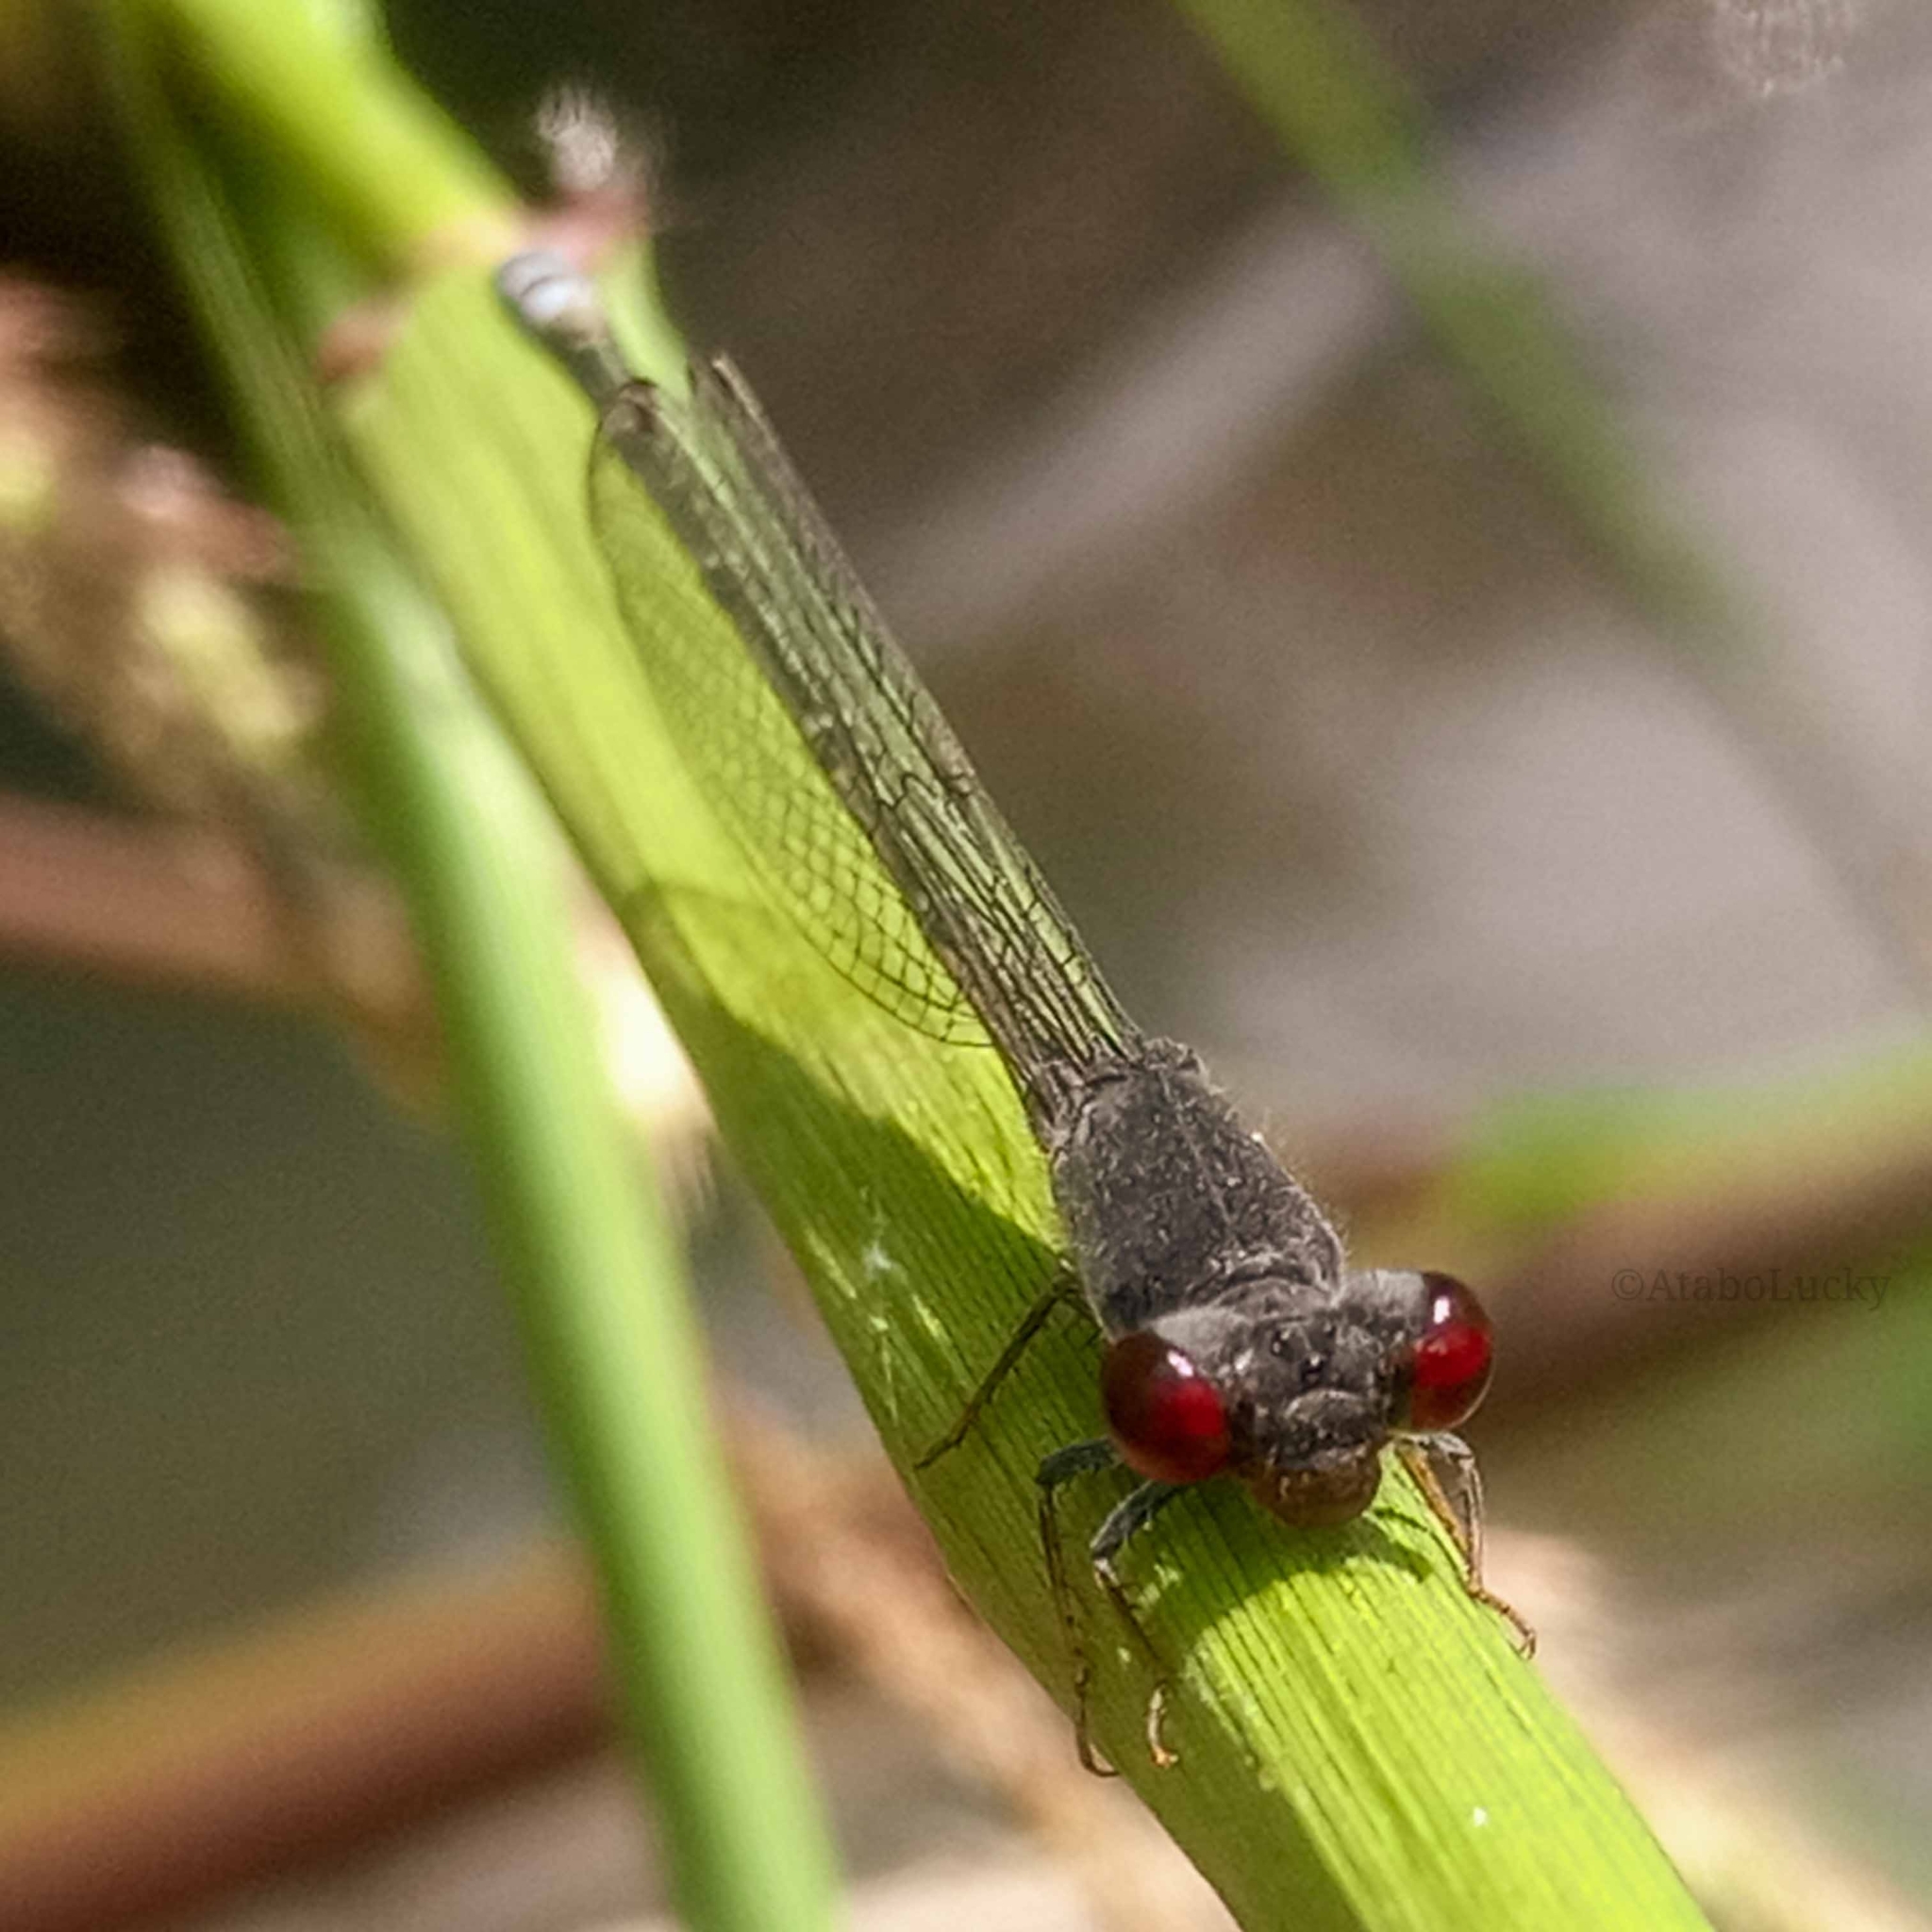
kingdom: Animalia
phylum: Arthropoda
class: Insecta
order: Odonata
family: Coenagrionidae
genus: Pseudagrion
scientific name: Pseudagrion hamoni
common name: Swarthy sprite
